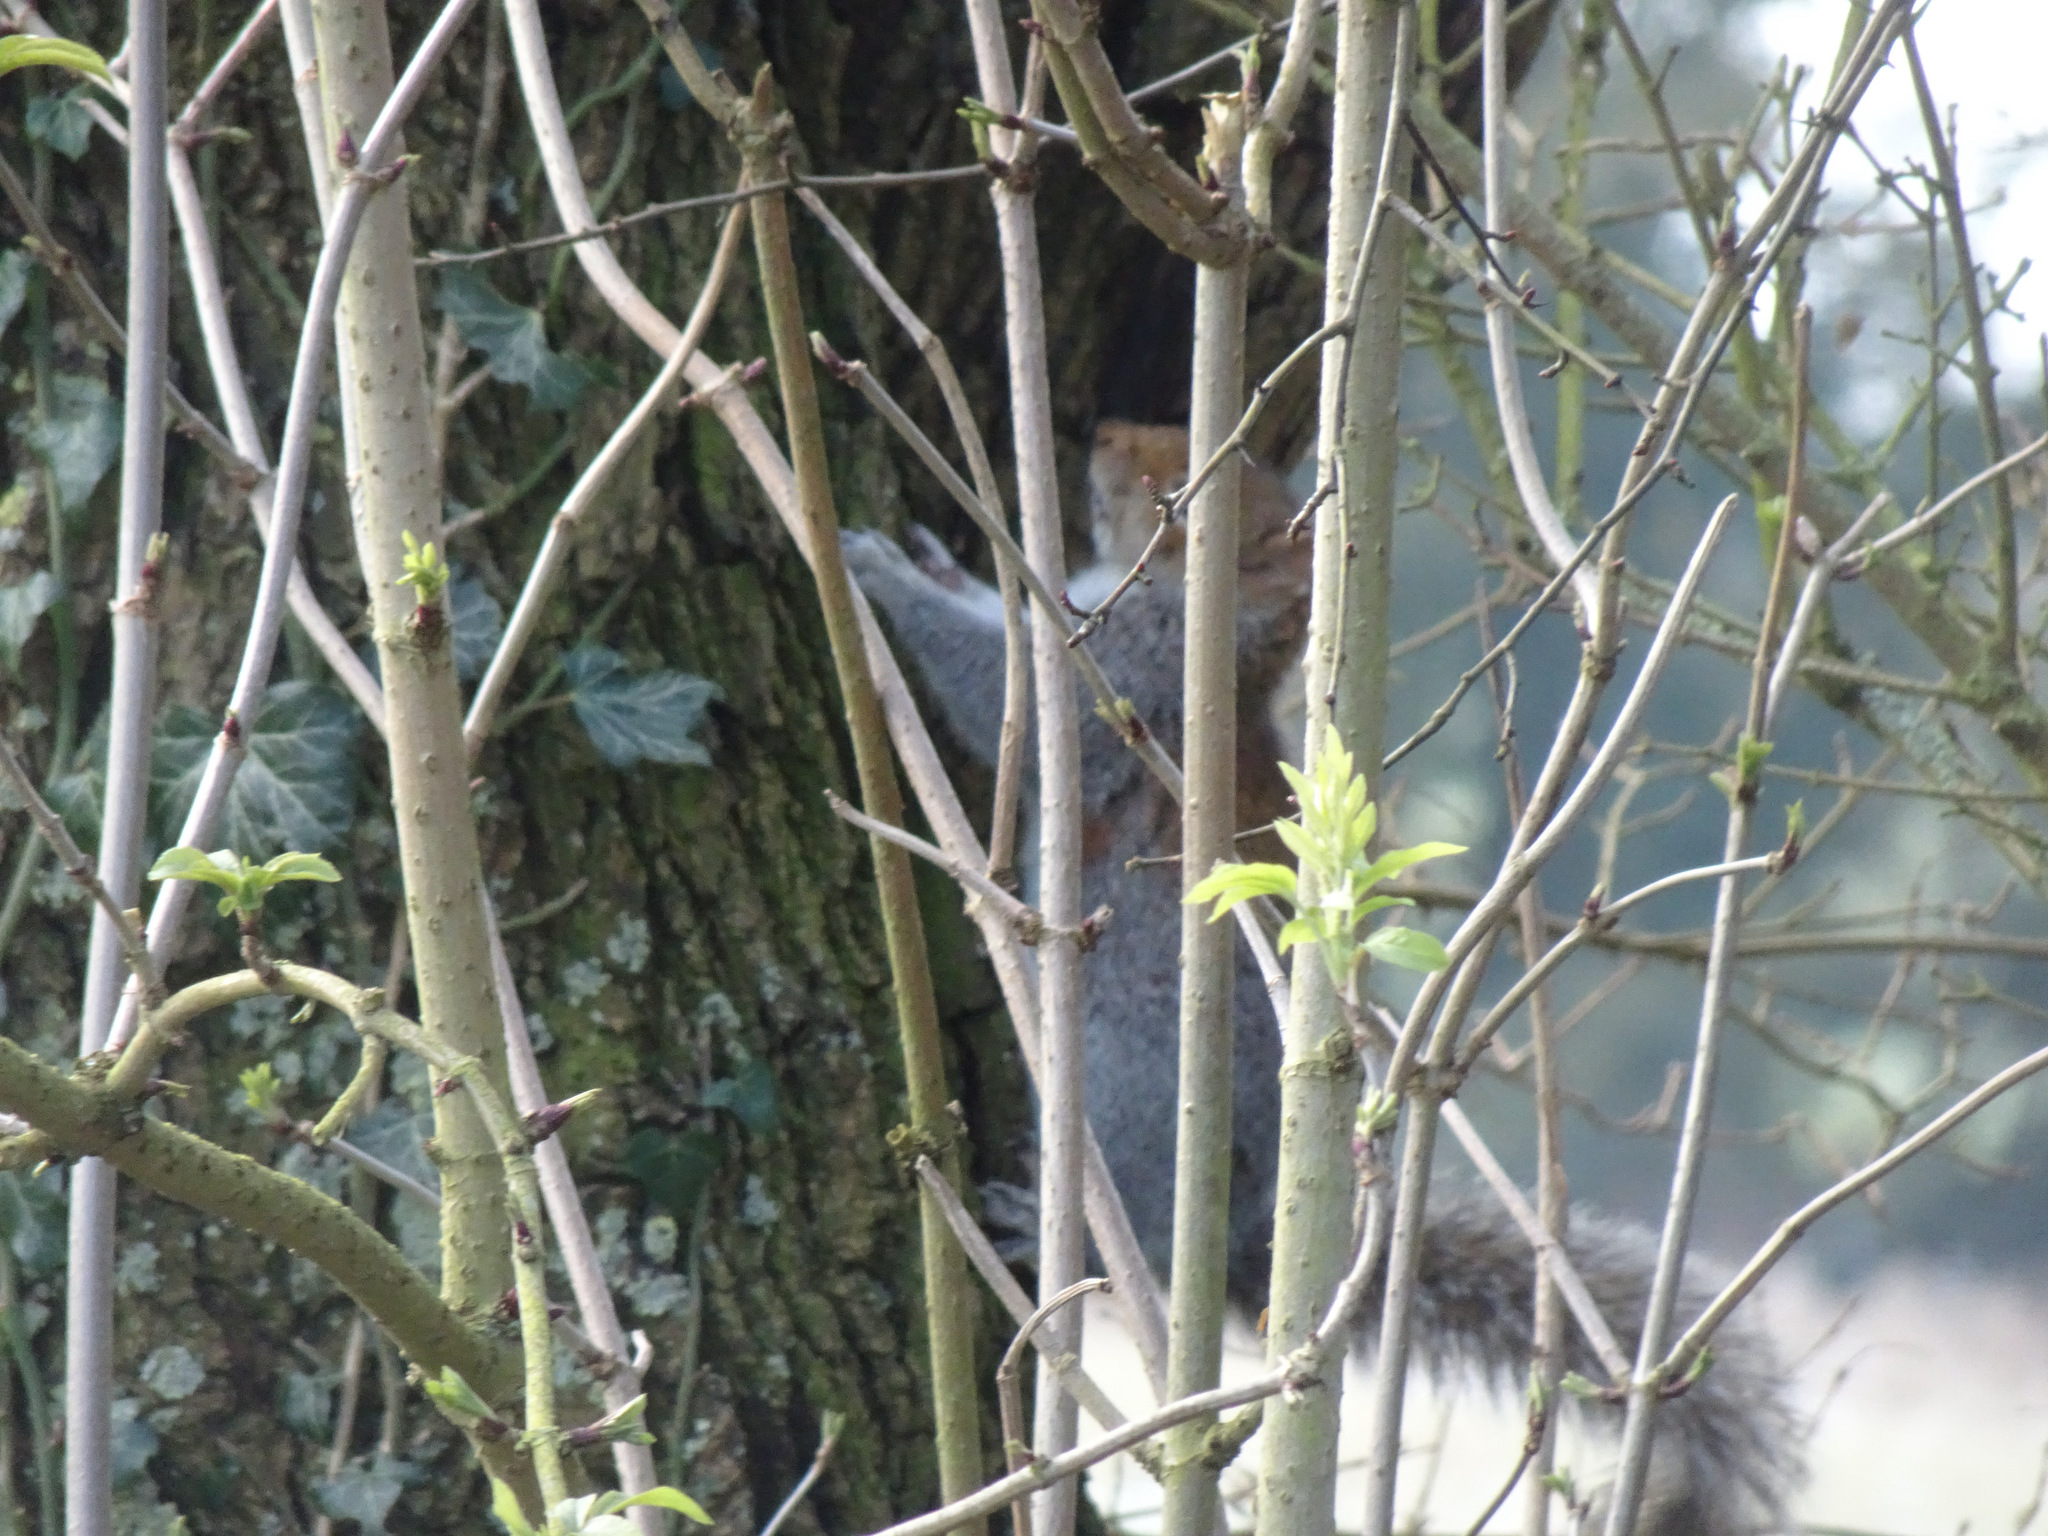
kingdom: Animalia
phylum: Chordata
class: Mammalia
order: Rodentia
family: Sciuridae
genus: Sciurus
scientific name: Sciurus carolinensis
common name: Eastern gray squirrel
